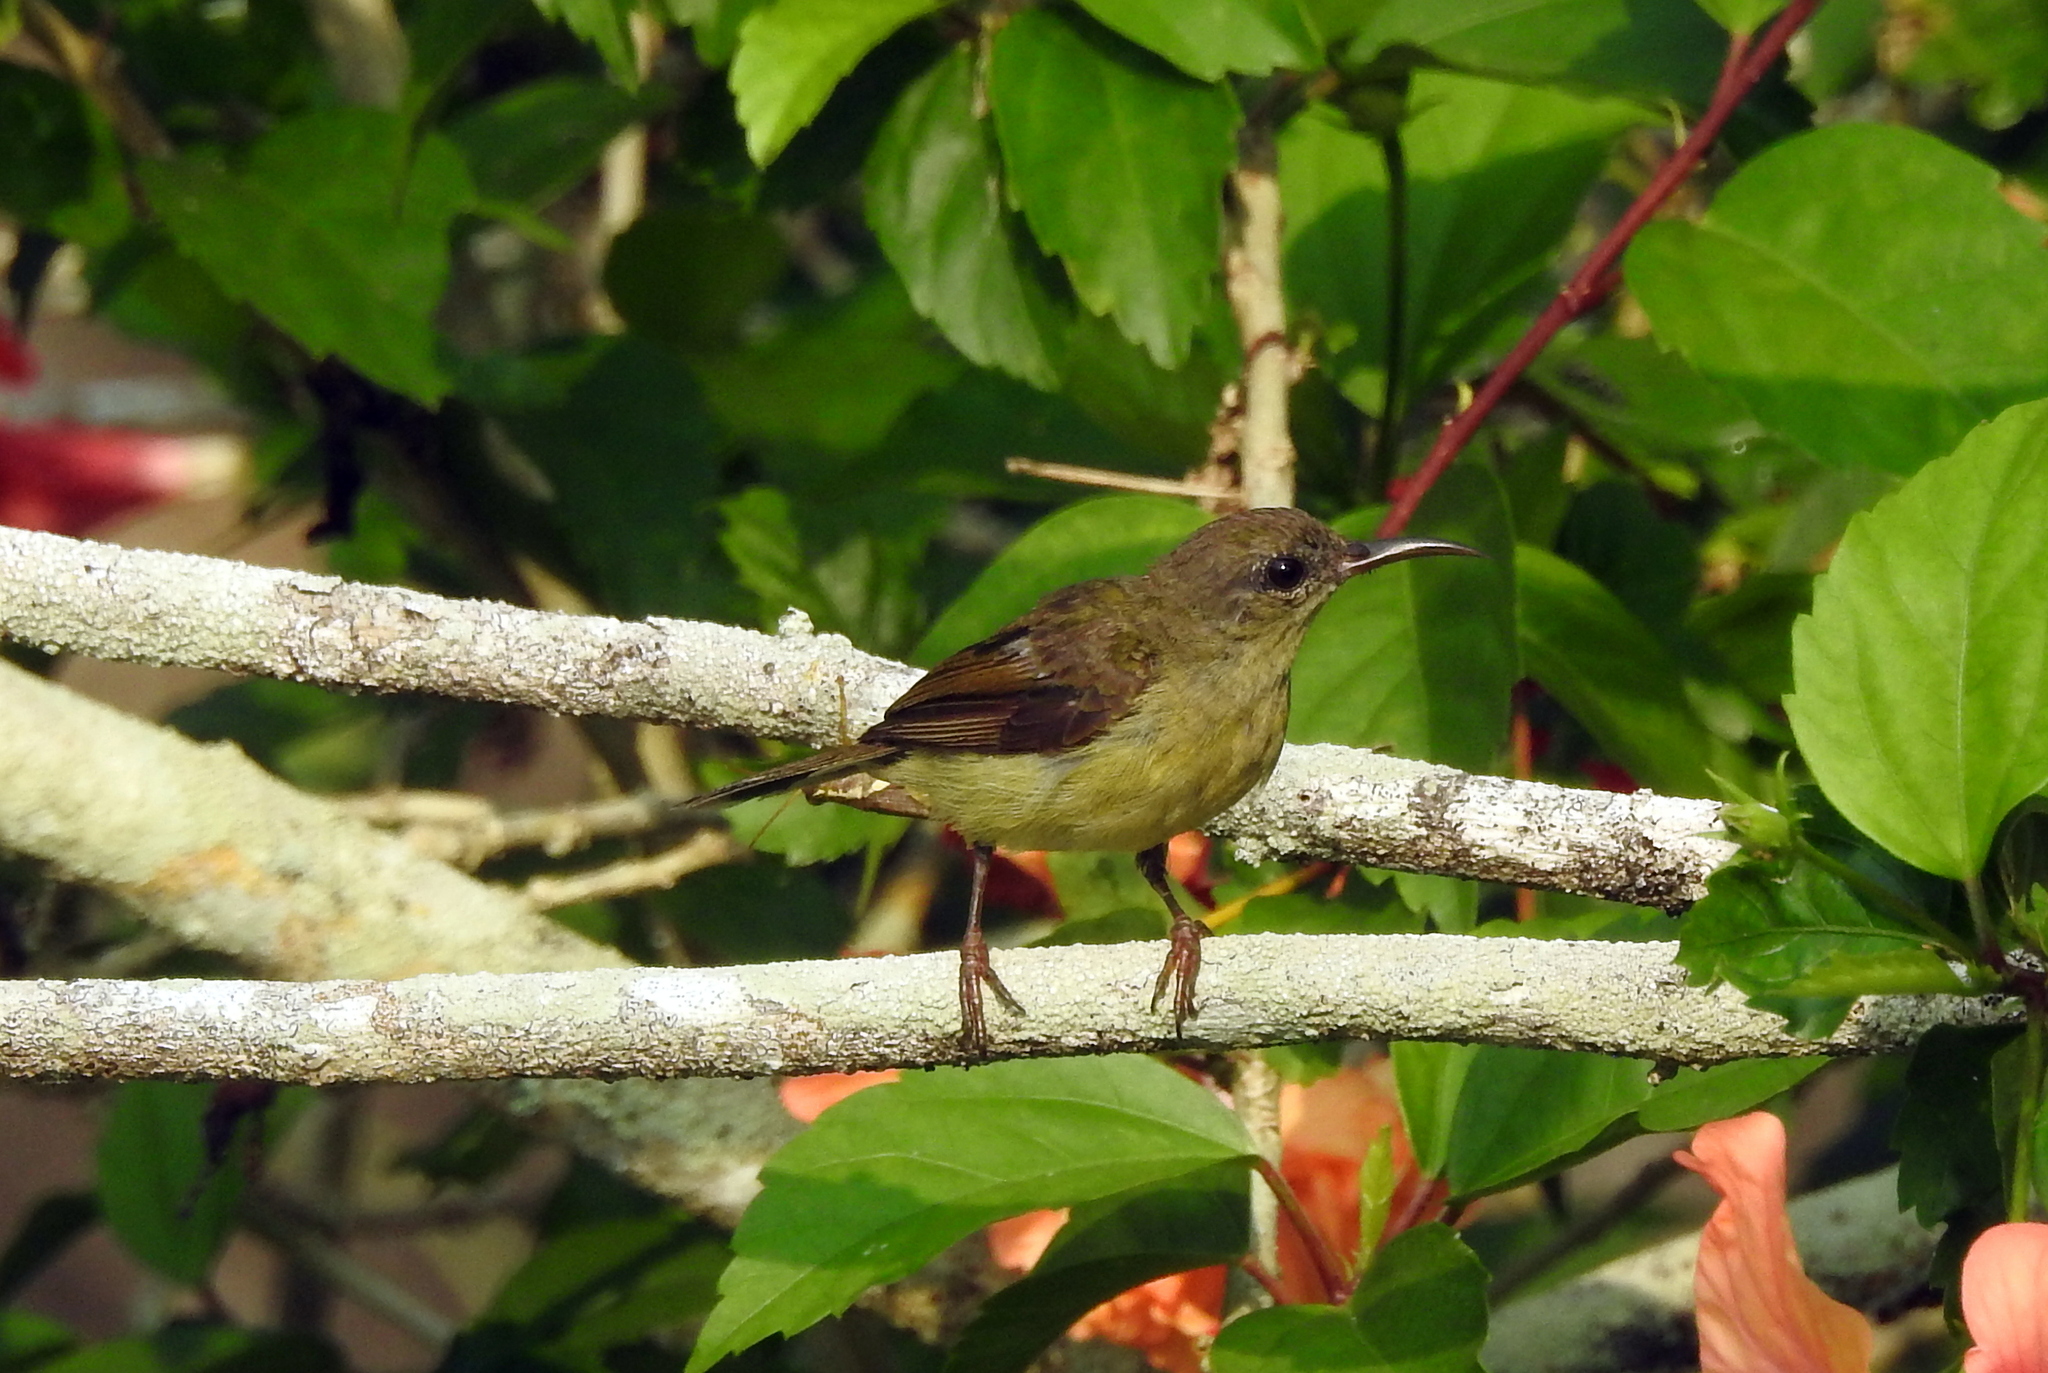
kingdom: Animalia
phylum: Chordata
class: Aves
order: Passeriformes
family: Nectariniidae
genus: Aethopyga
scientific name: Aethopyga siparaja
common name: Crimson sunbird
